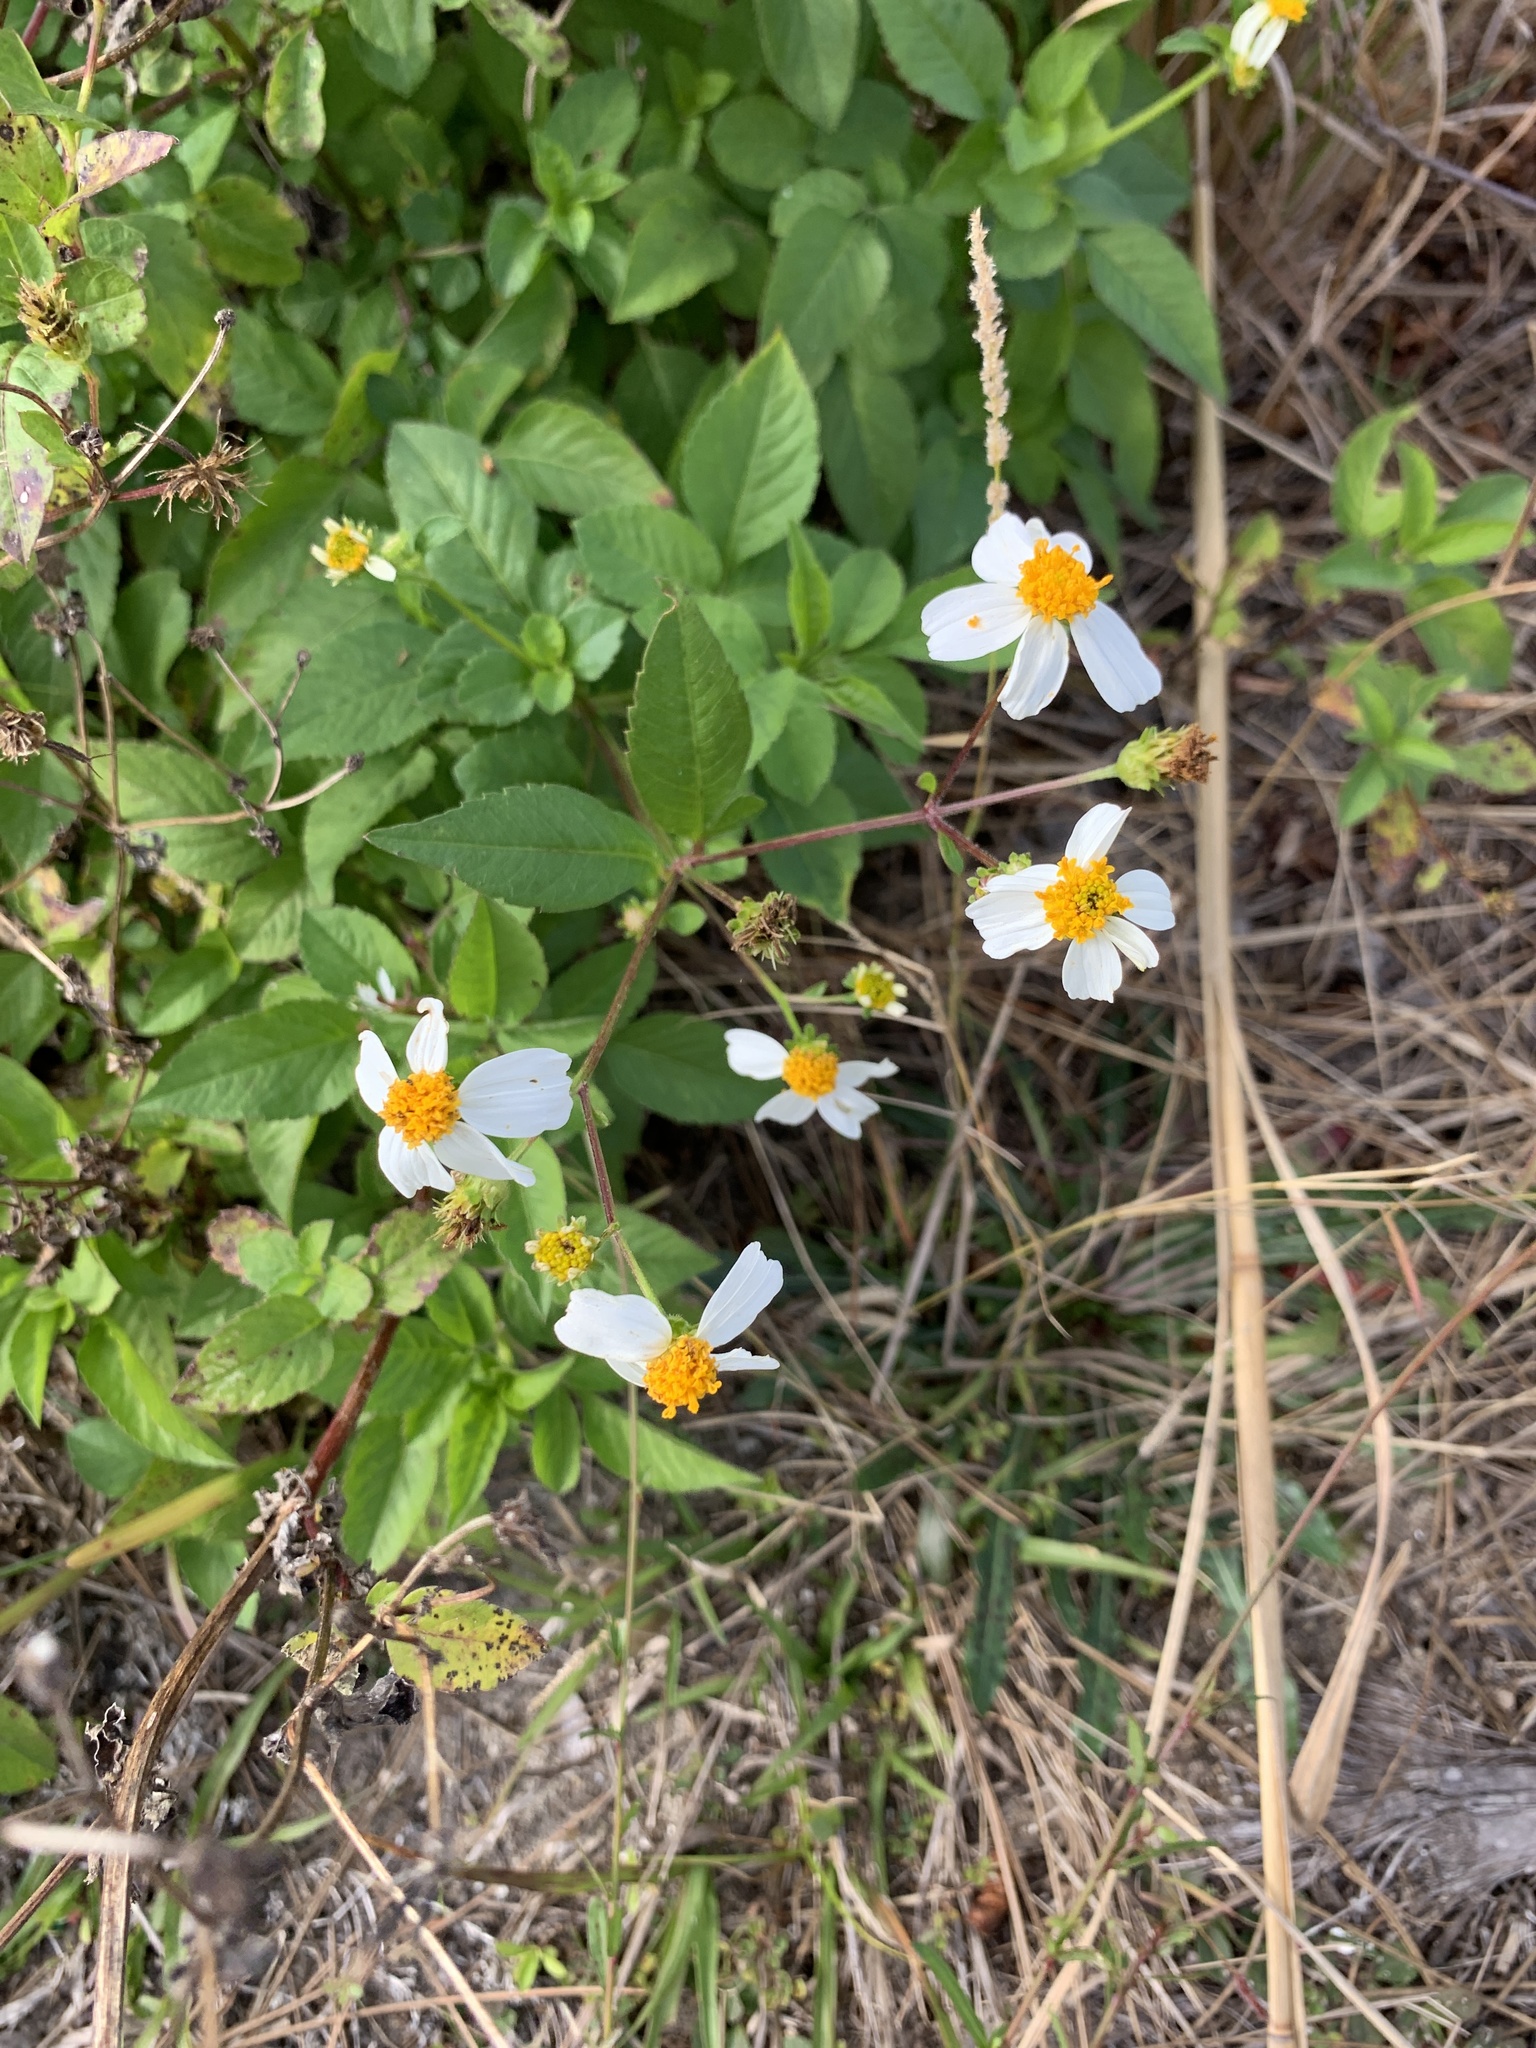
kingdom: Plantae
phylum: Tracheophyta
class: Magnoliopsida
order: Asterales
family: Asteraceae
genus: Bidens
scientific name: Bidens alba
